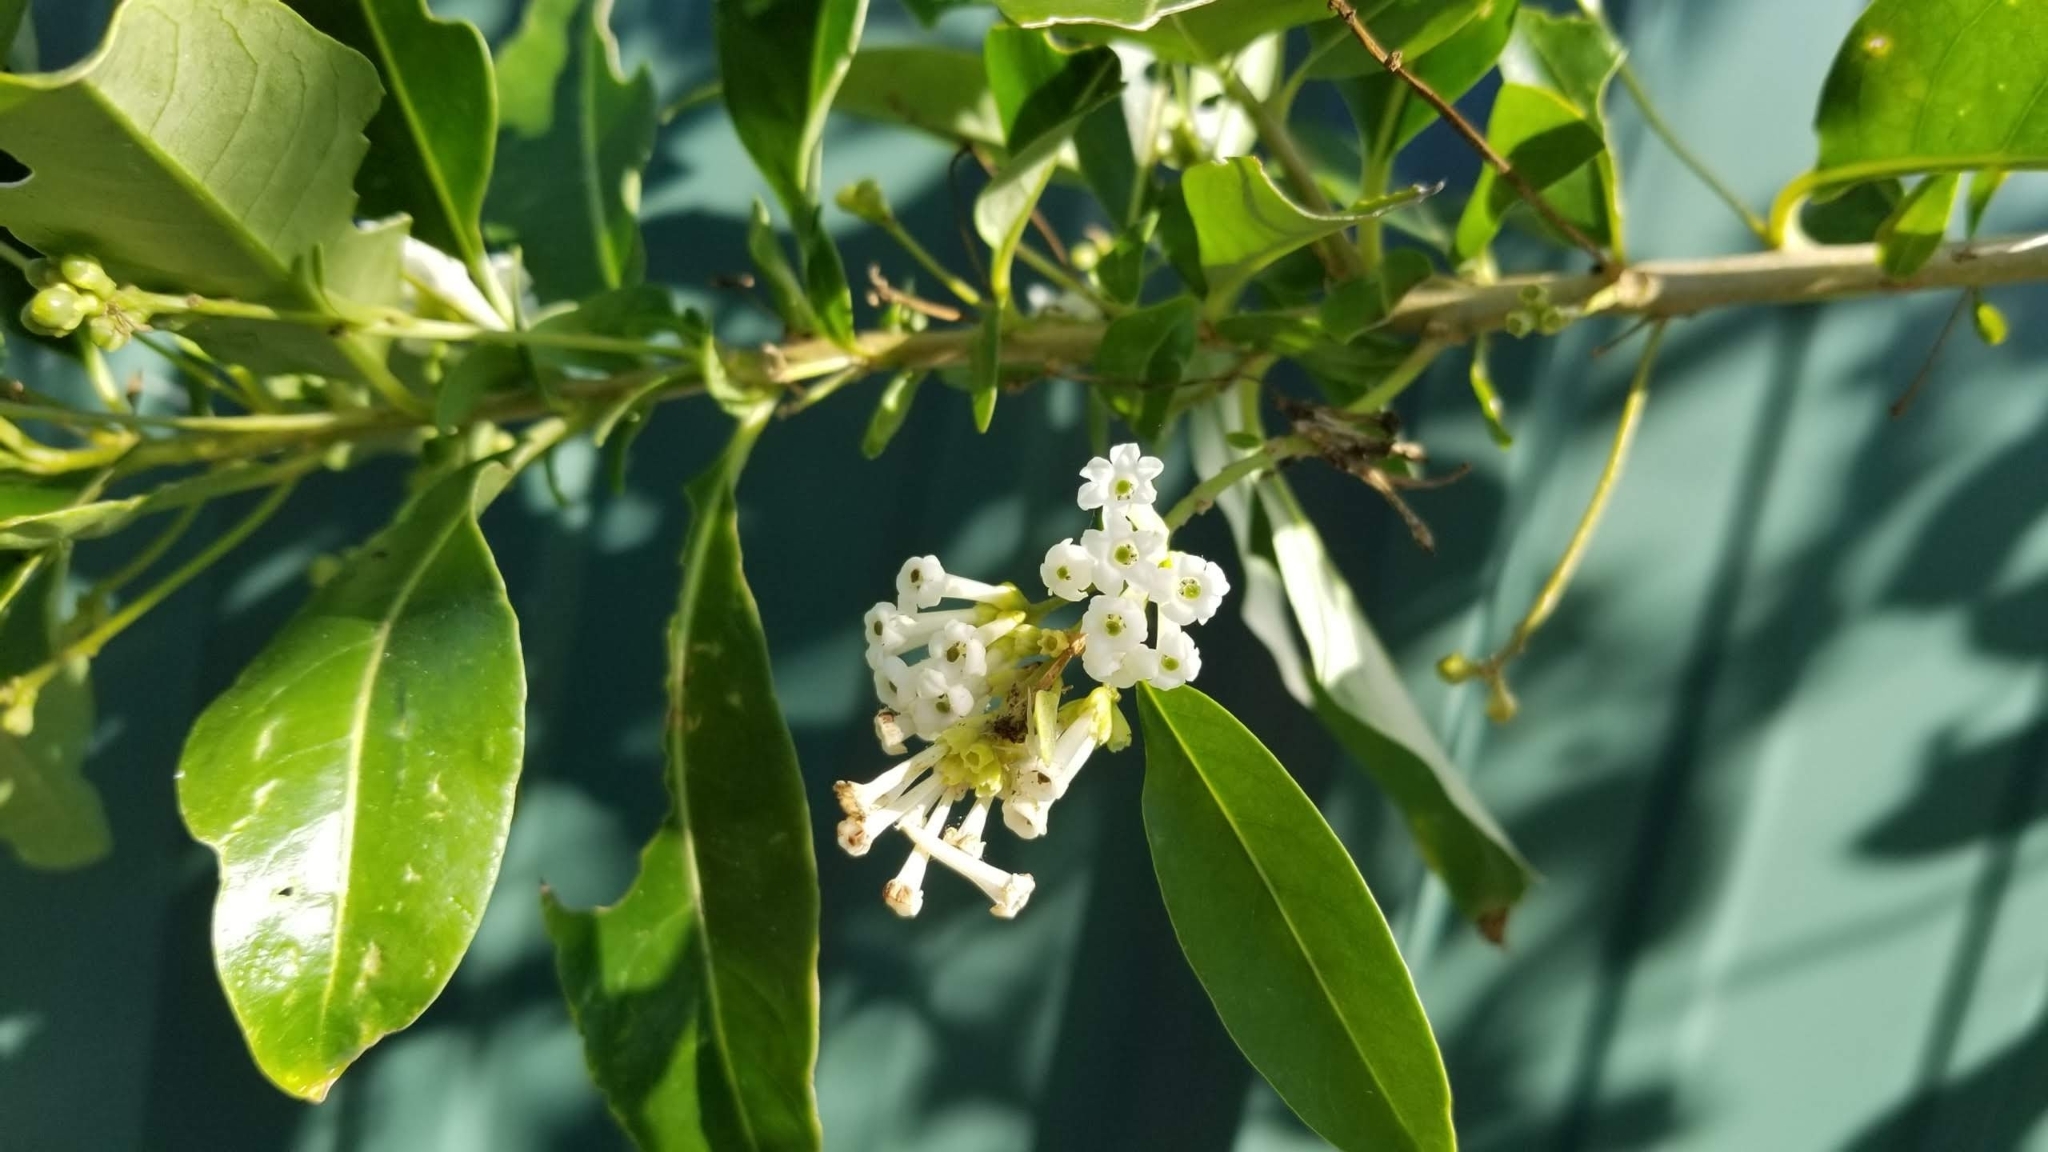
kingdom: Plantae
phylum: Tracheophyta
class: Magnoliopsida
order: Solanales
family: Solanaceae
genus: Cestrum
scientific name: Cestrum diurnum
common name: Day jessamine
